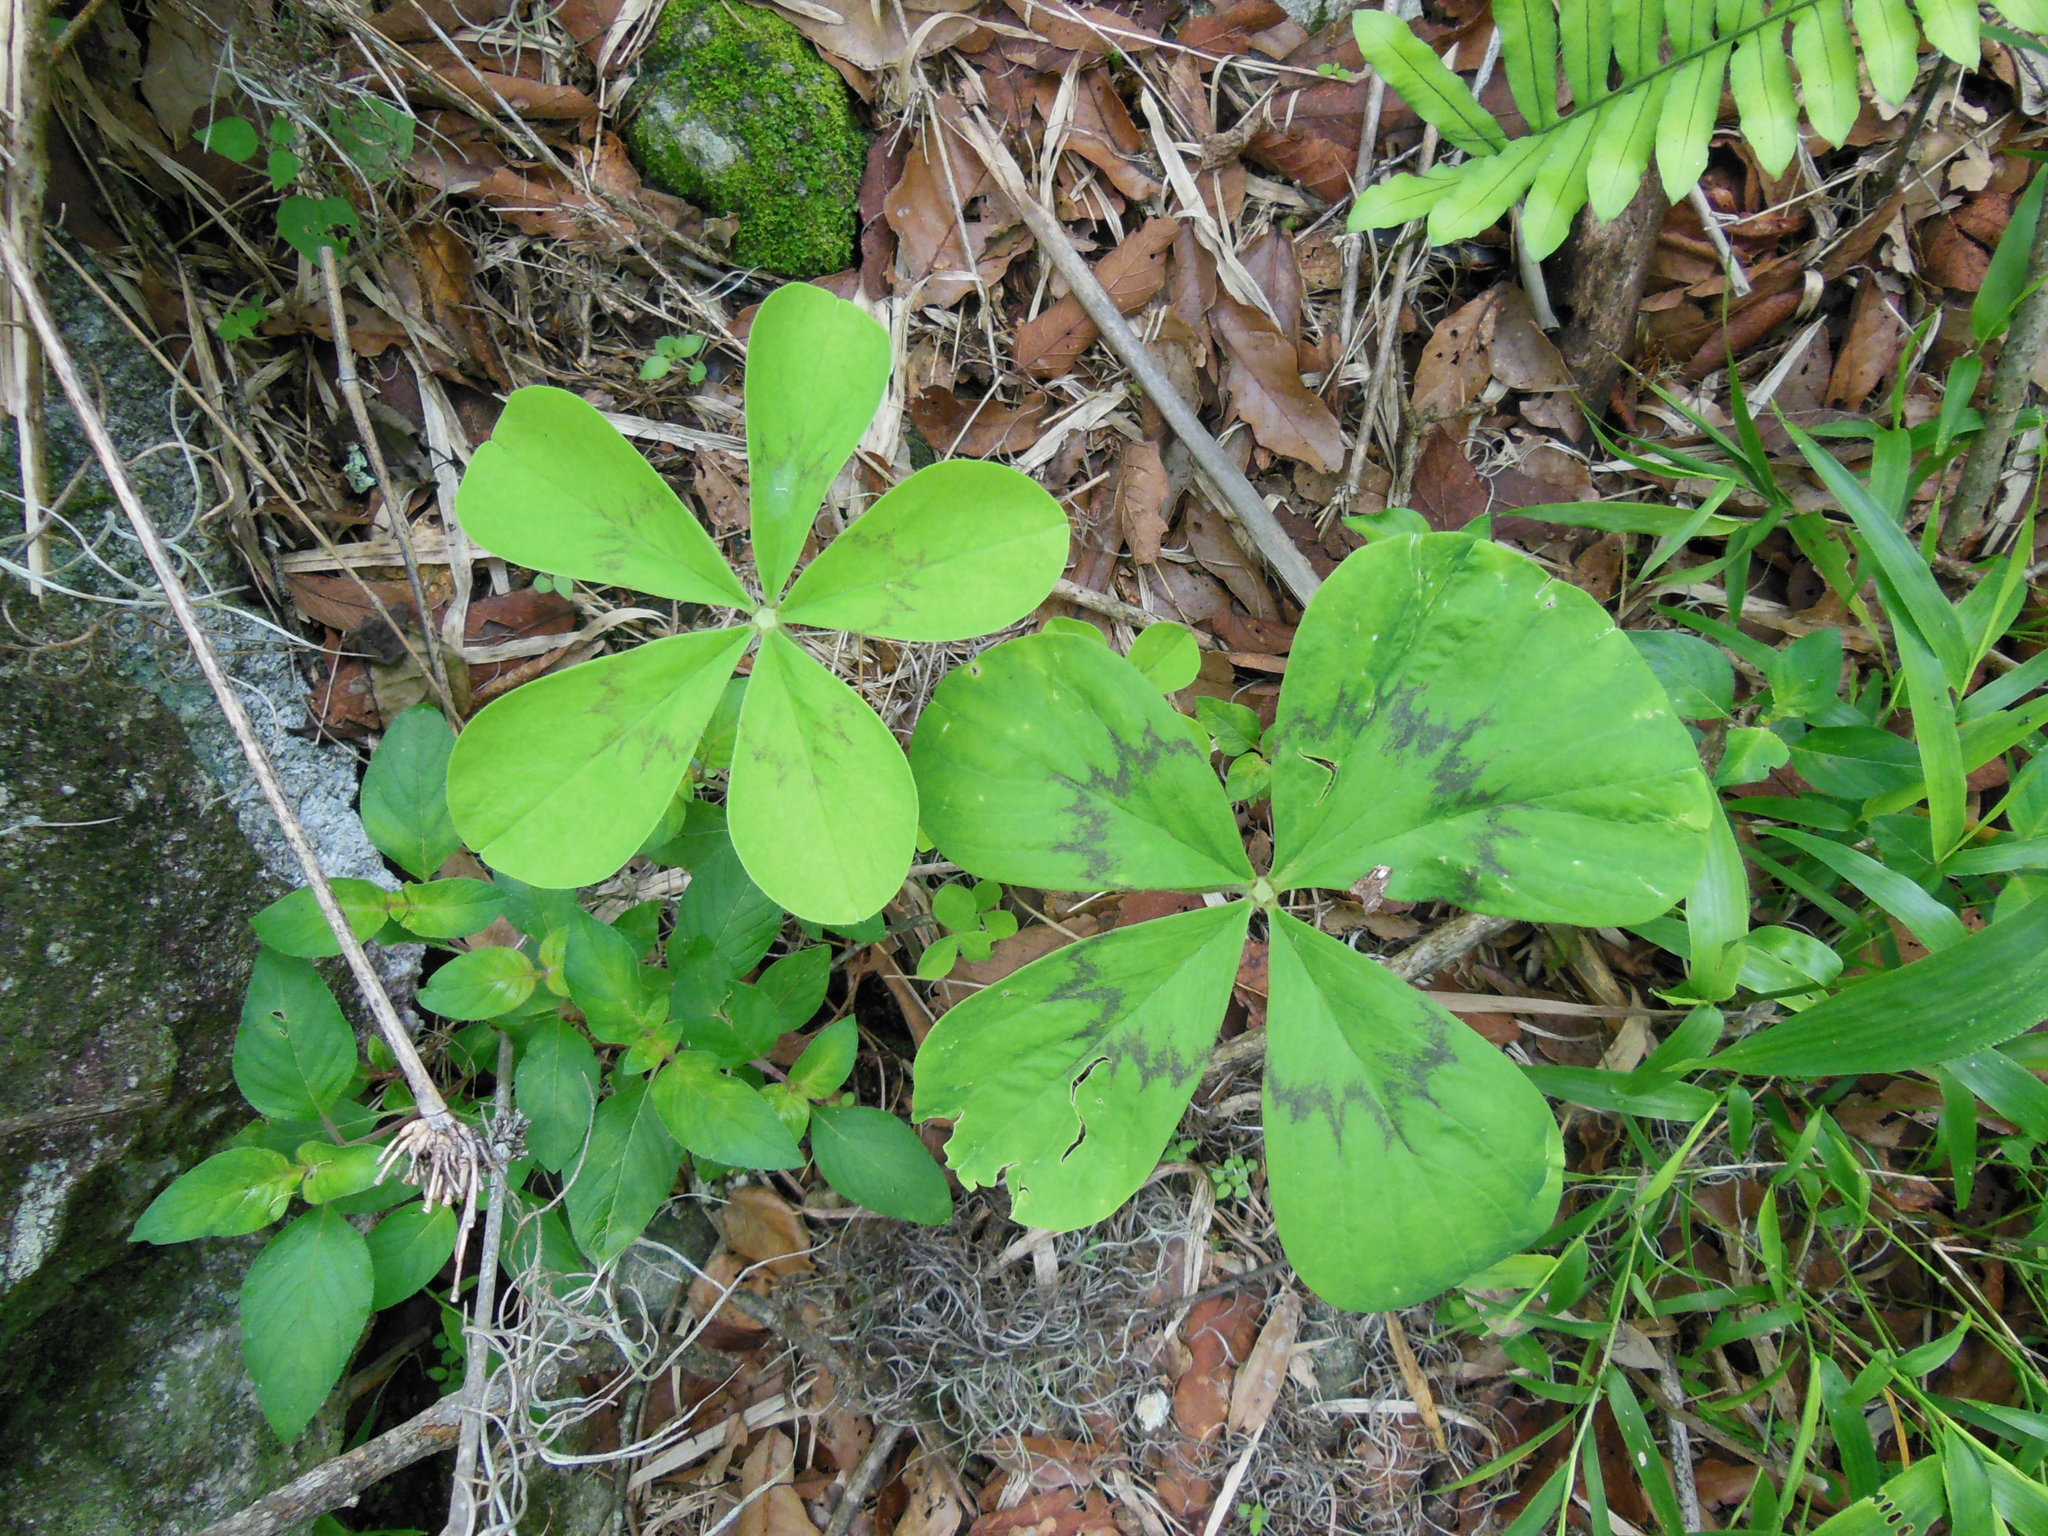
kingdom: Plantae
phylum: Tracheophyta
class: Magnoliopsida
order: Oxalidales
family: Oxalidaceae
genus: Oxalis
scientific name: Oxalis nelsonii
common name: Sorrel
